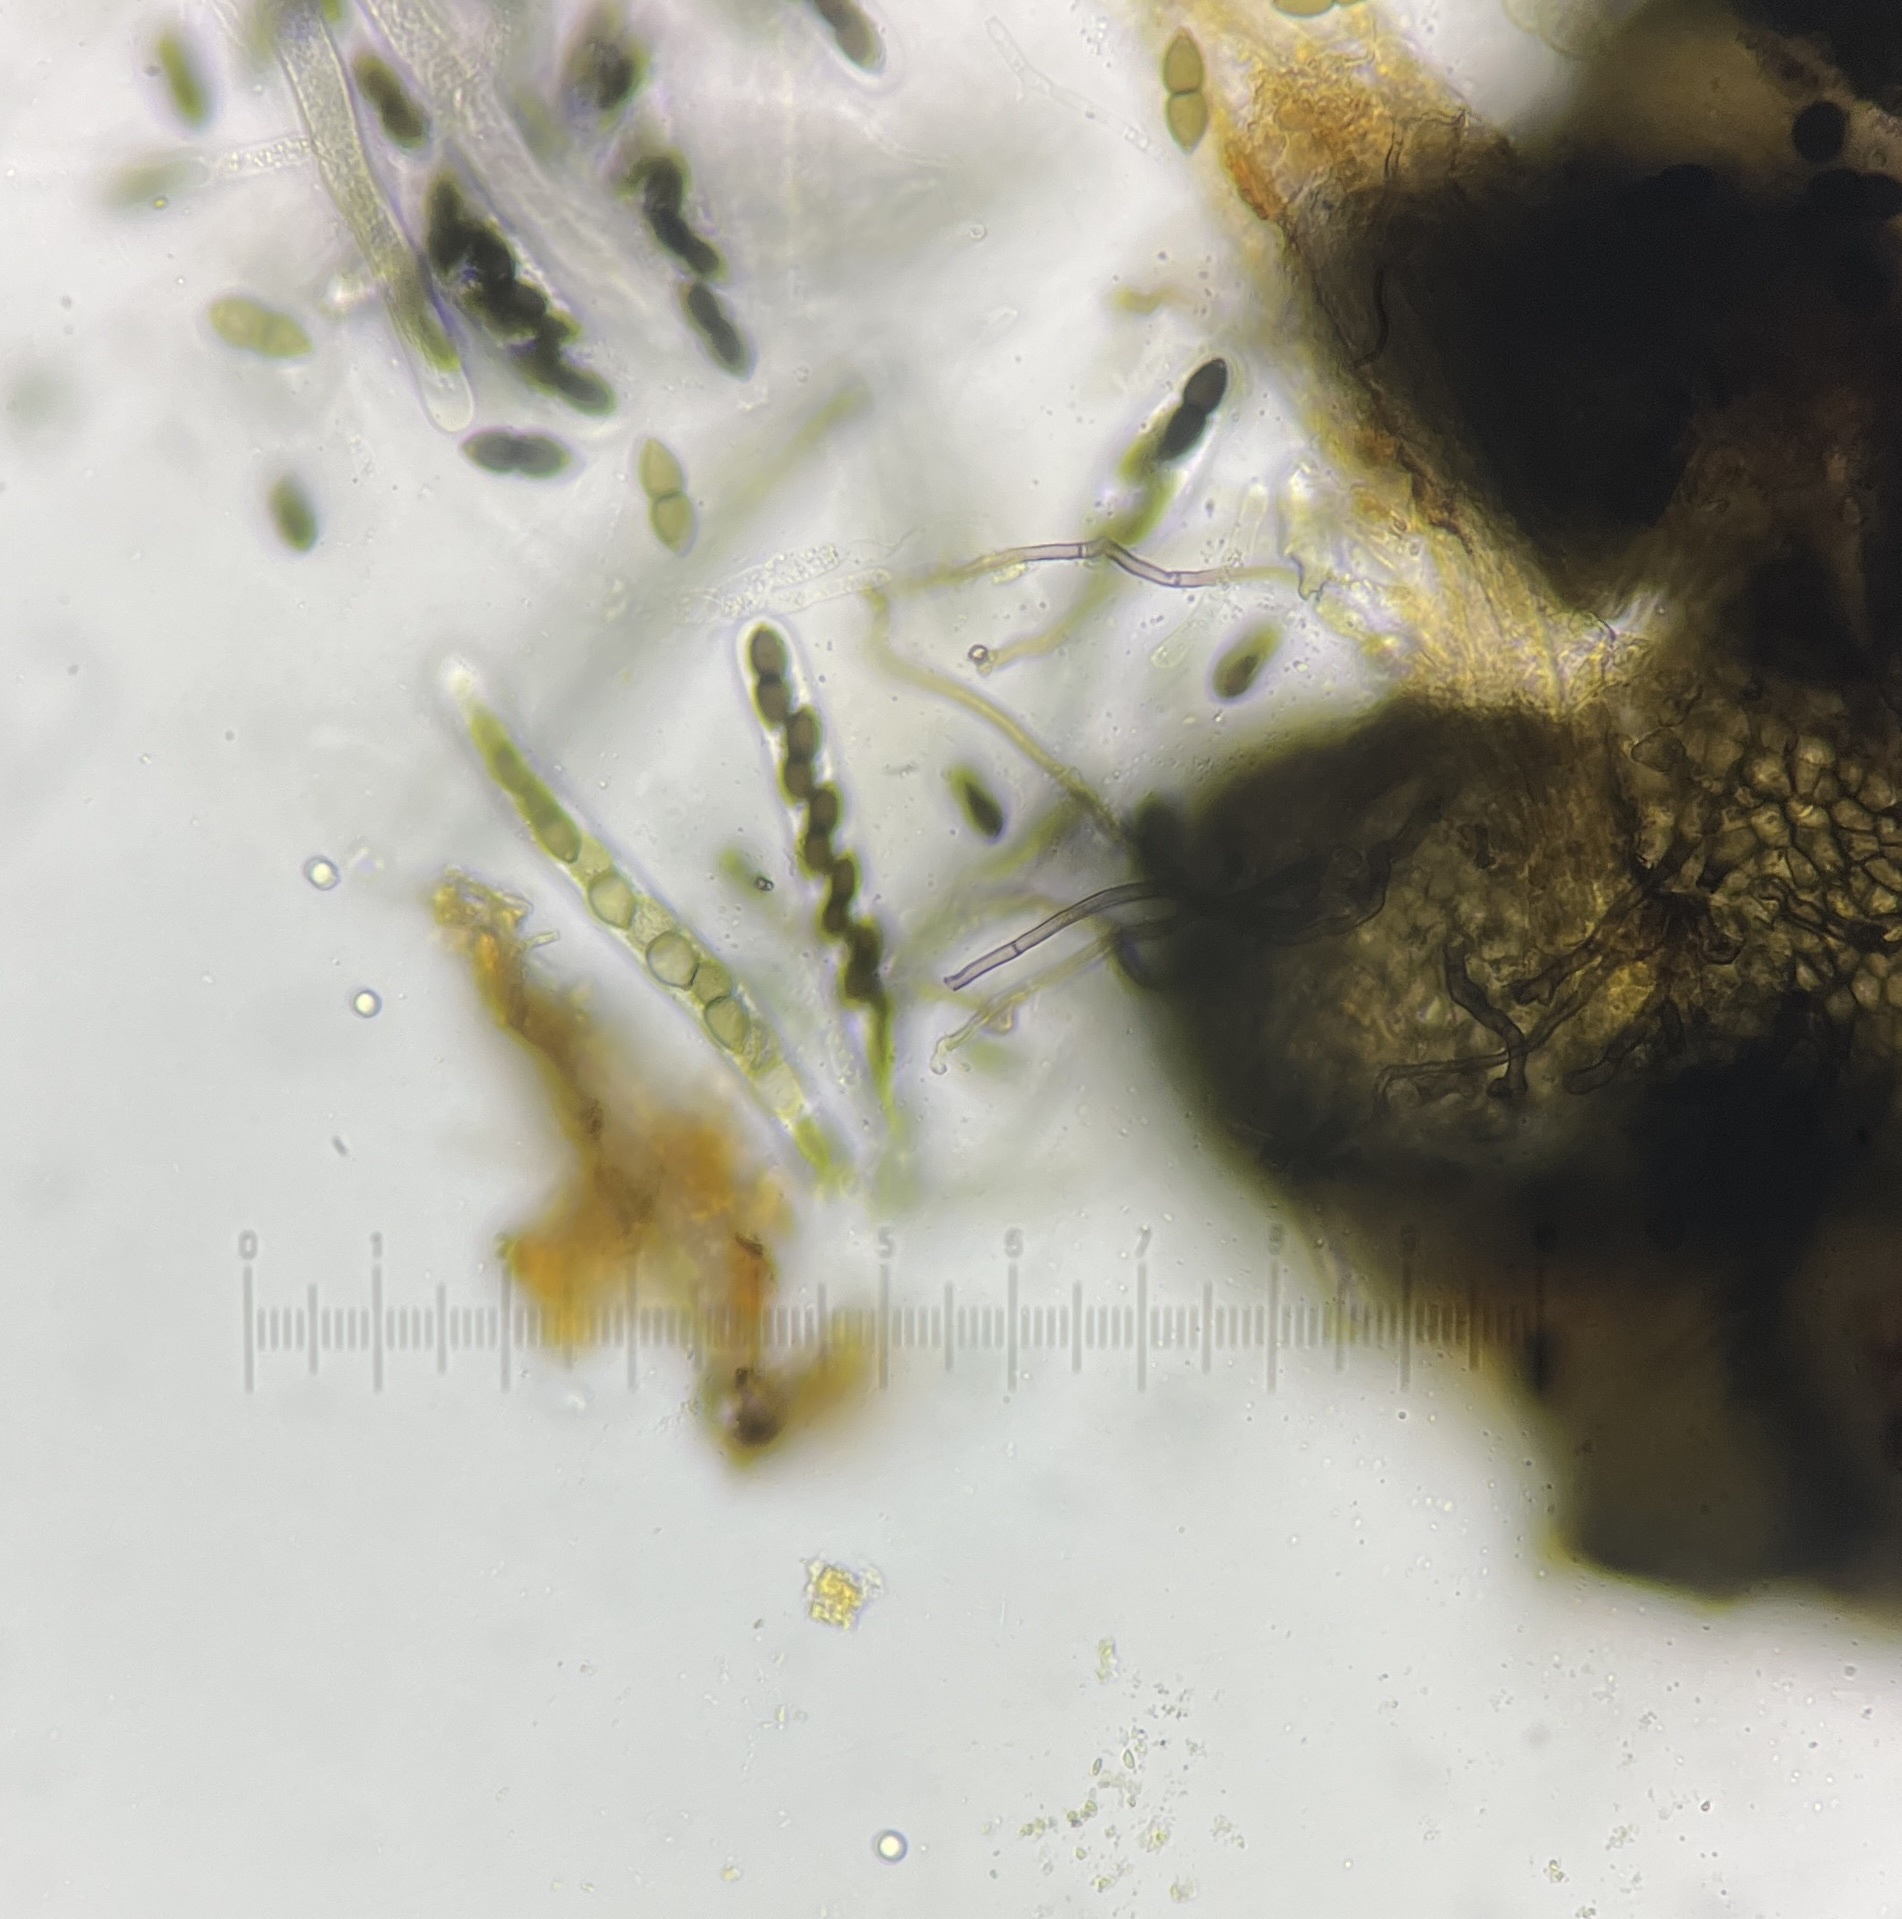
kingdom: Fungi
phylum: Ascomycota
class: Dothideomycetes
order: Phaeotrichales
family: Phaeotrichaceae
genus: Trichodelitschia
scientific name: Trichodelitschia munkii
